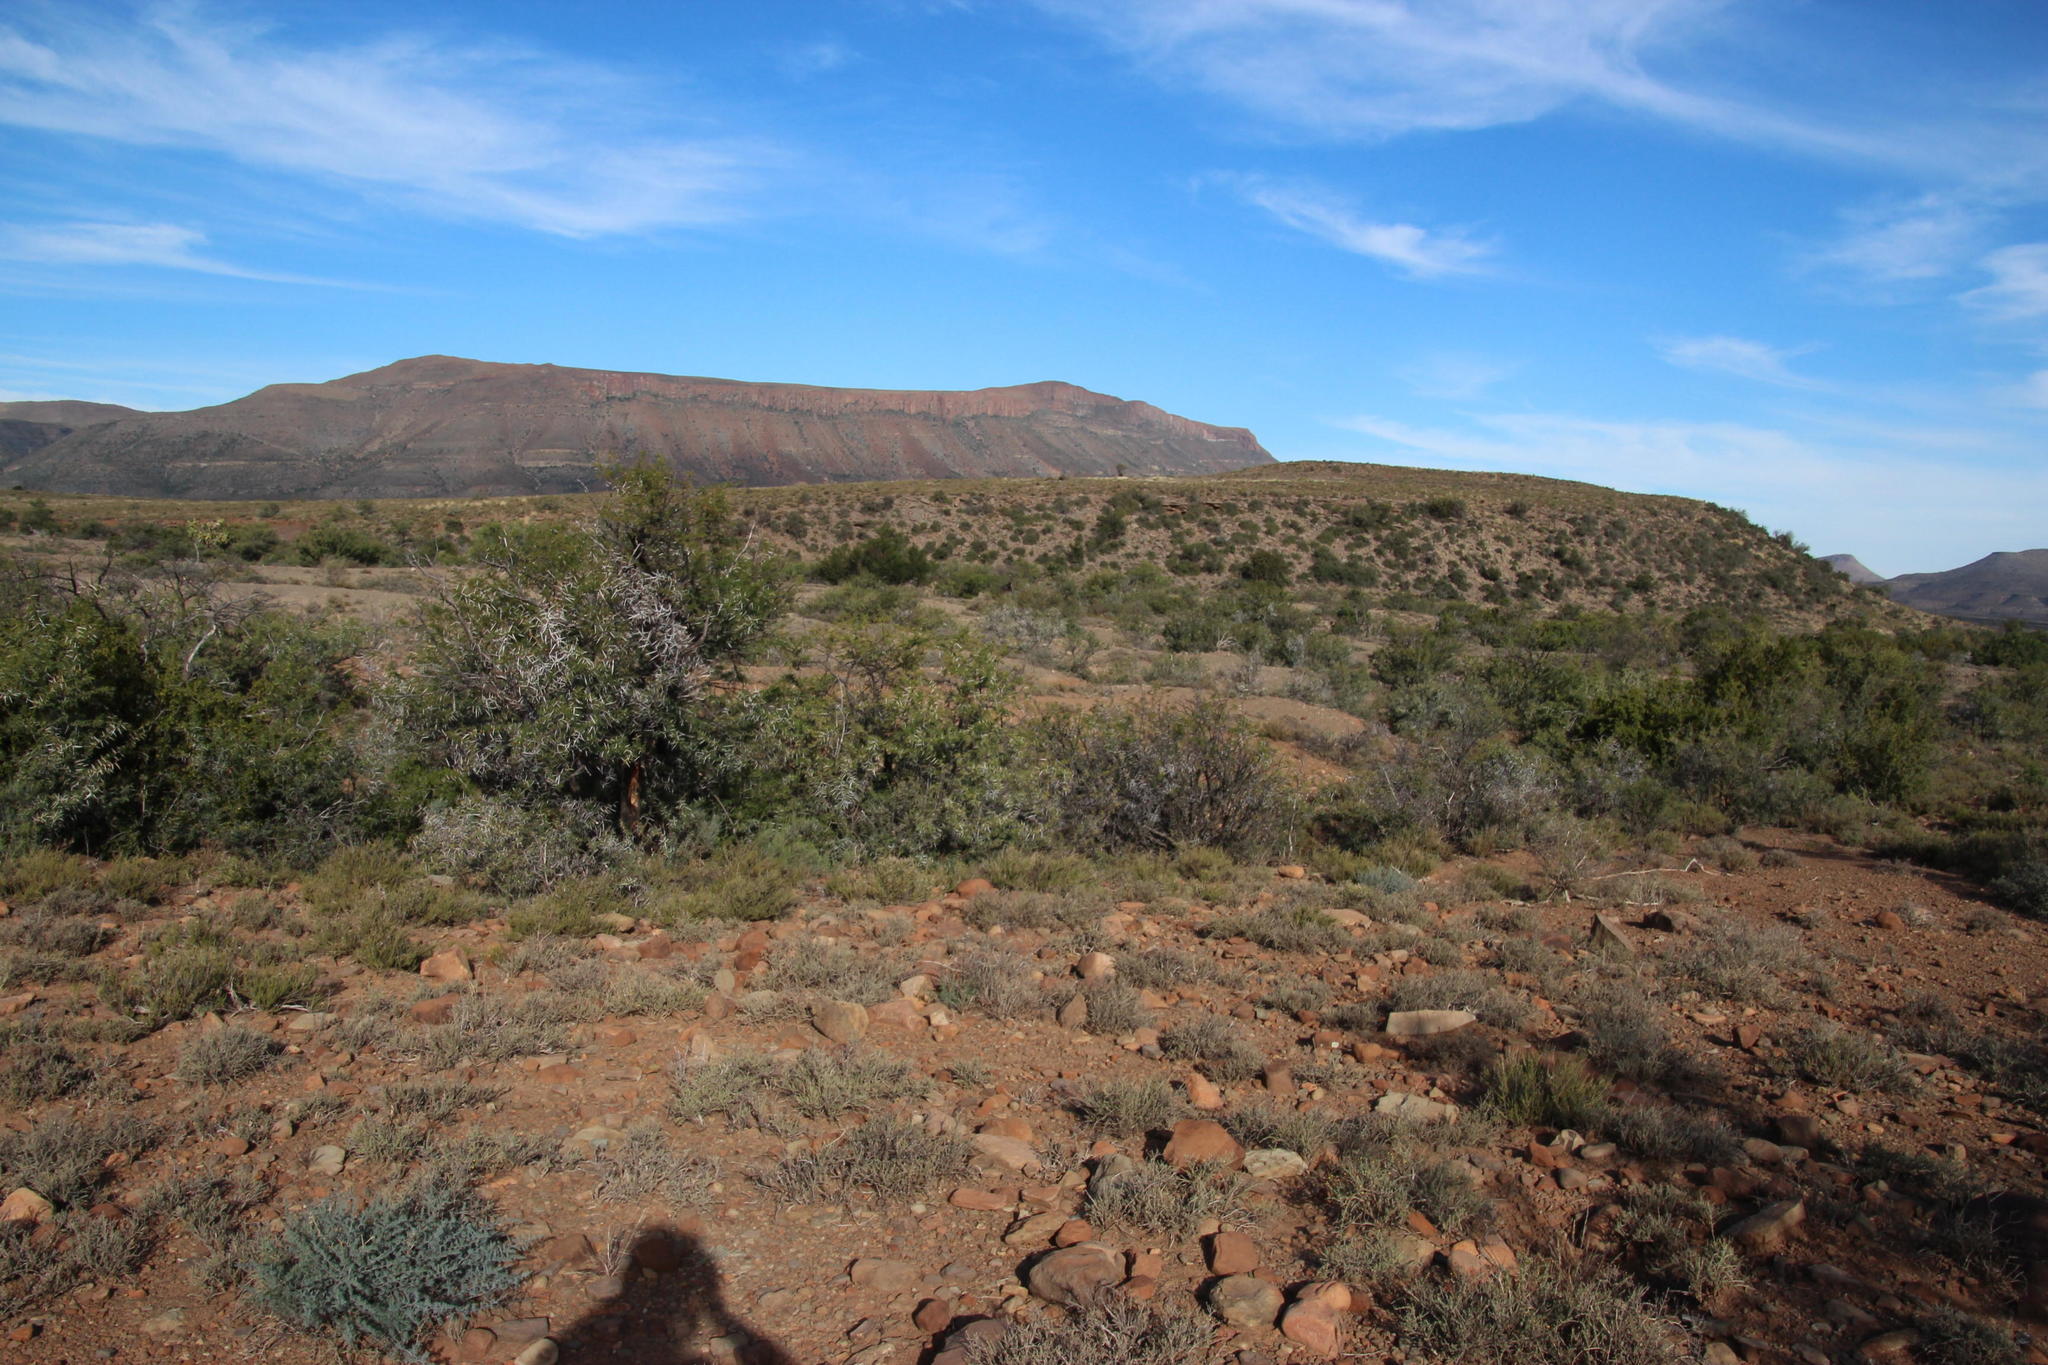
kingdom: Plantae
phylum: Tracheophyta
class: Magnoliopsida
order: Fabales
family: Fabaceae
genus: Vachellia
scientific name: Vachellia karroo
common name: Sweet thorn
